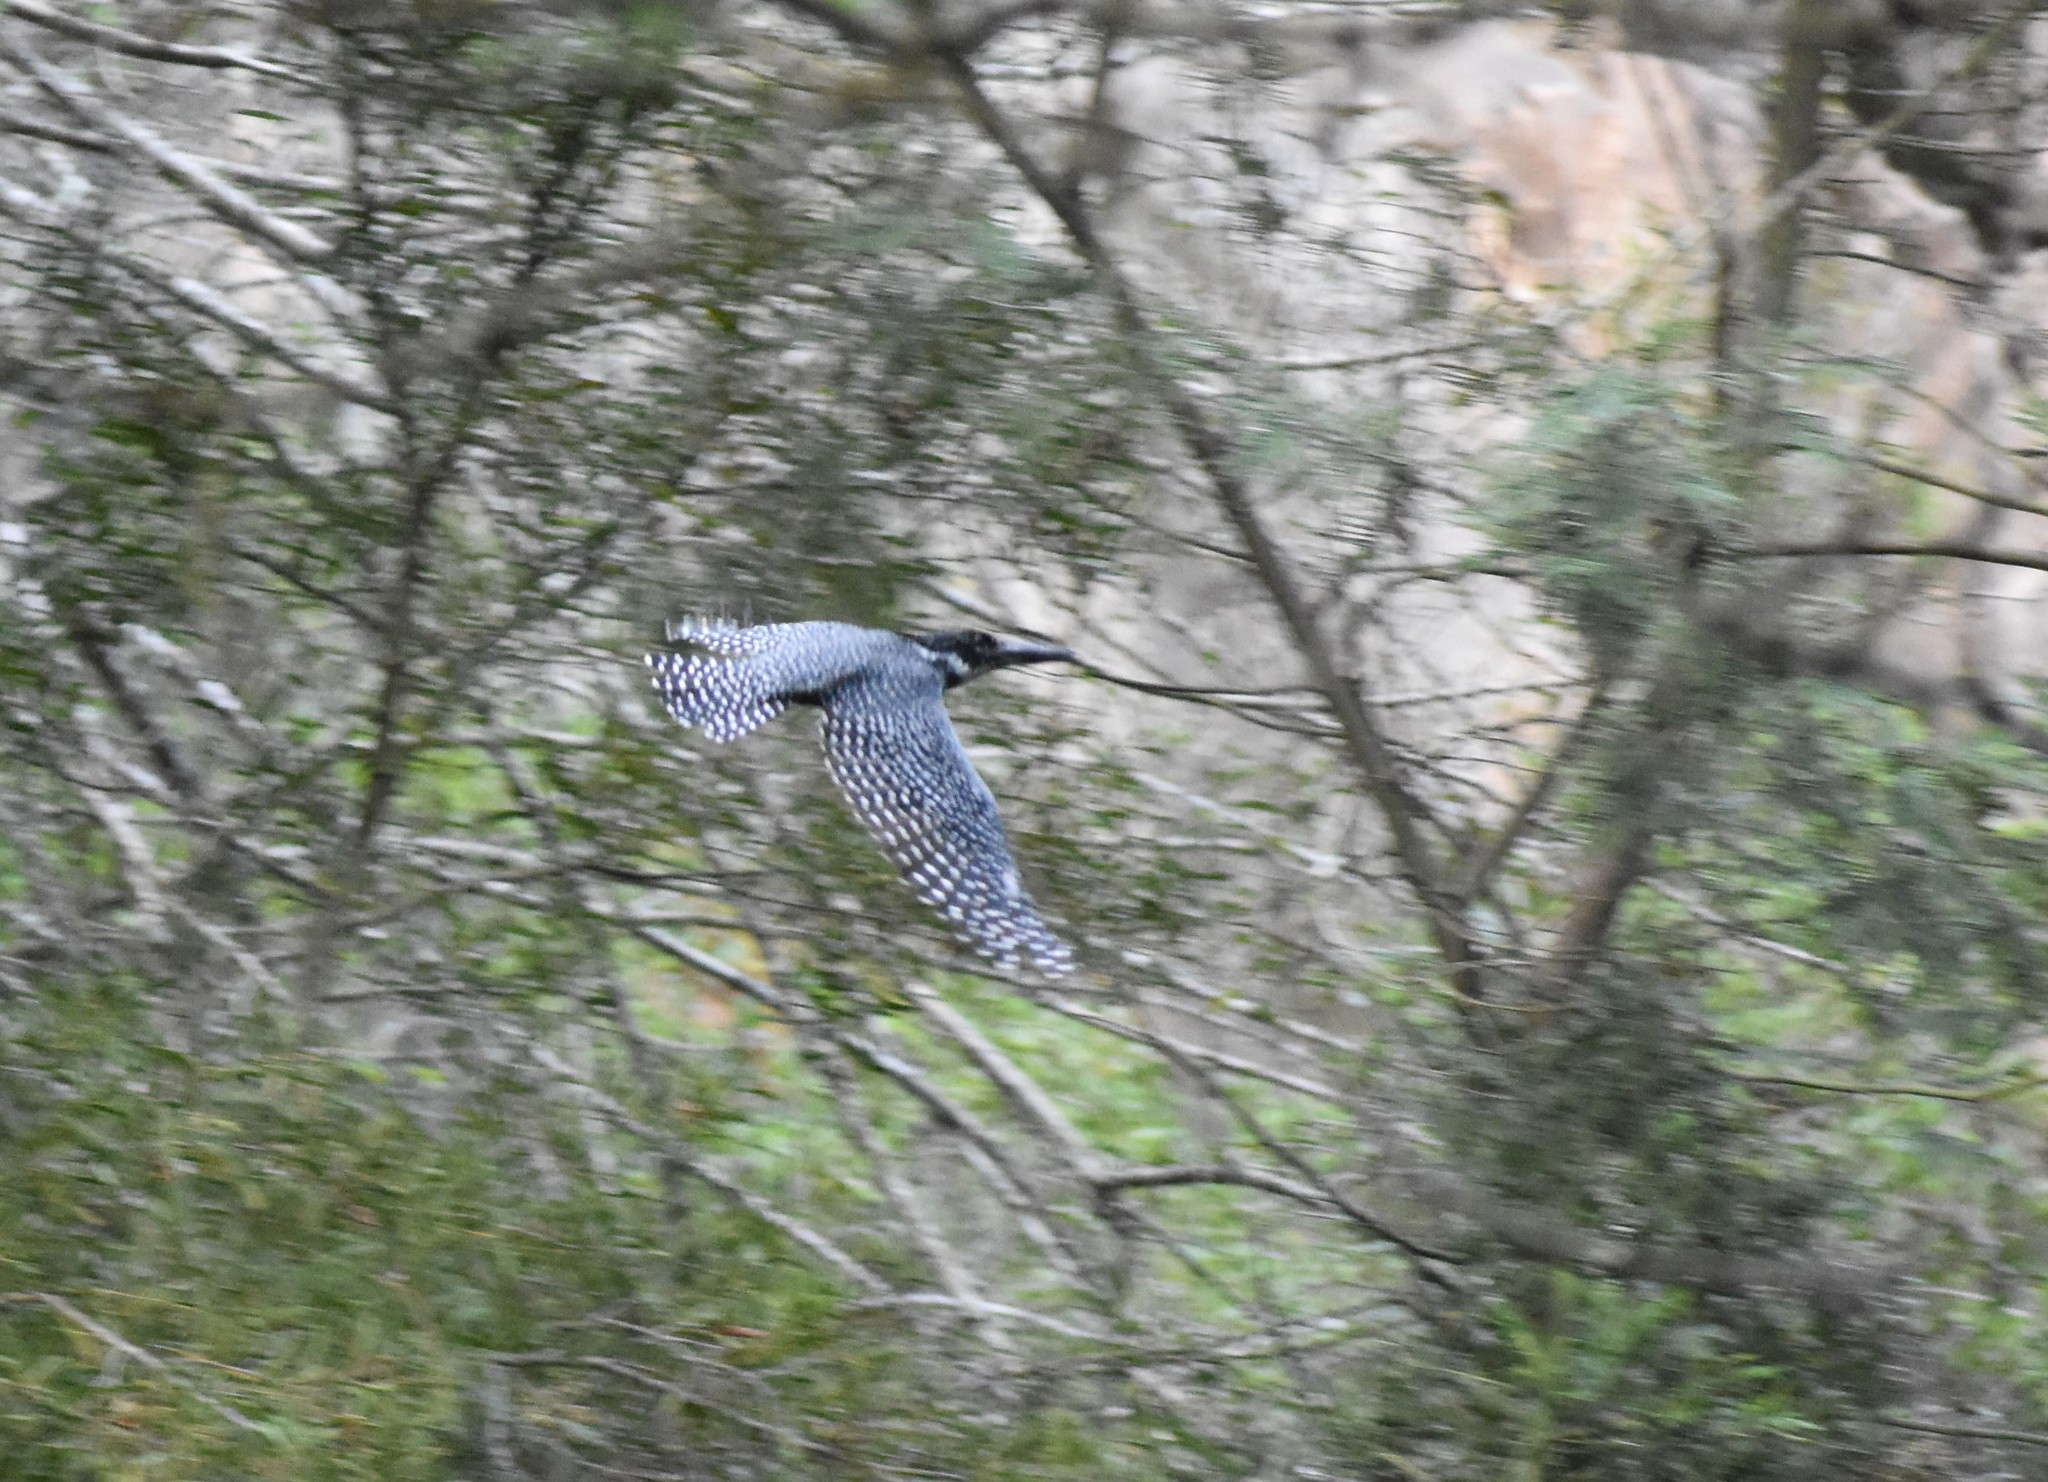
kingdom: Animalia
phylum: Chordata
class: Aves
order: Coraciiformes
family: Alcedinidae
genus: Megaceryle
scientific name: Megaceryle maxima
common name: Giant kingfisher
